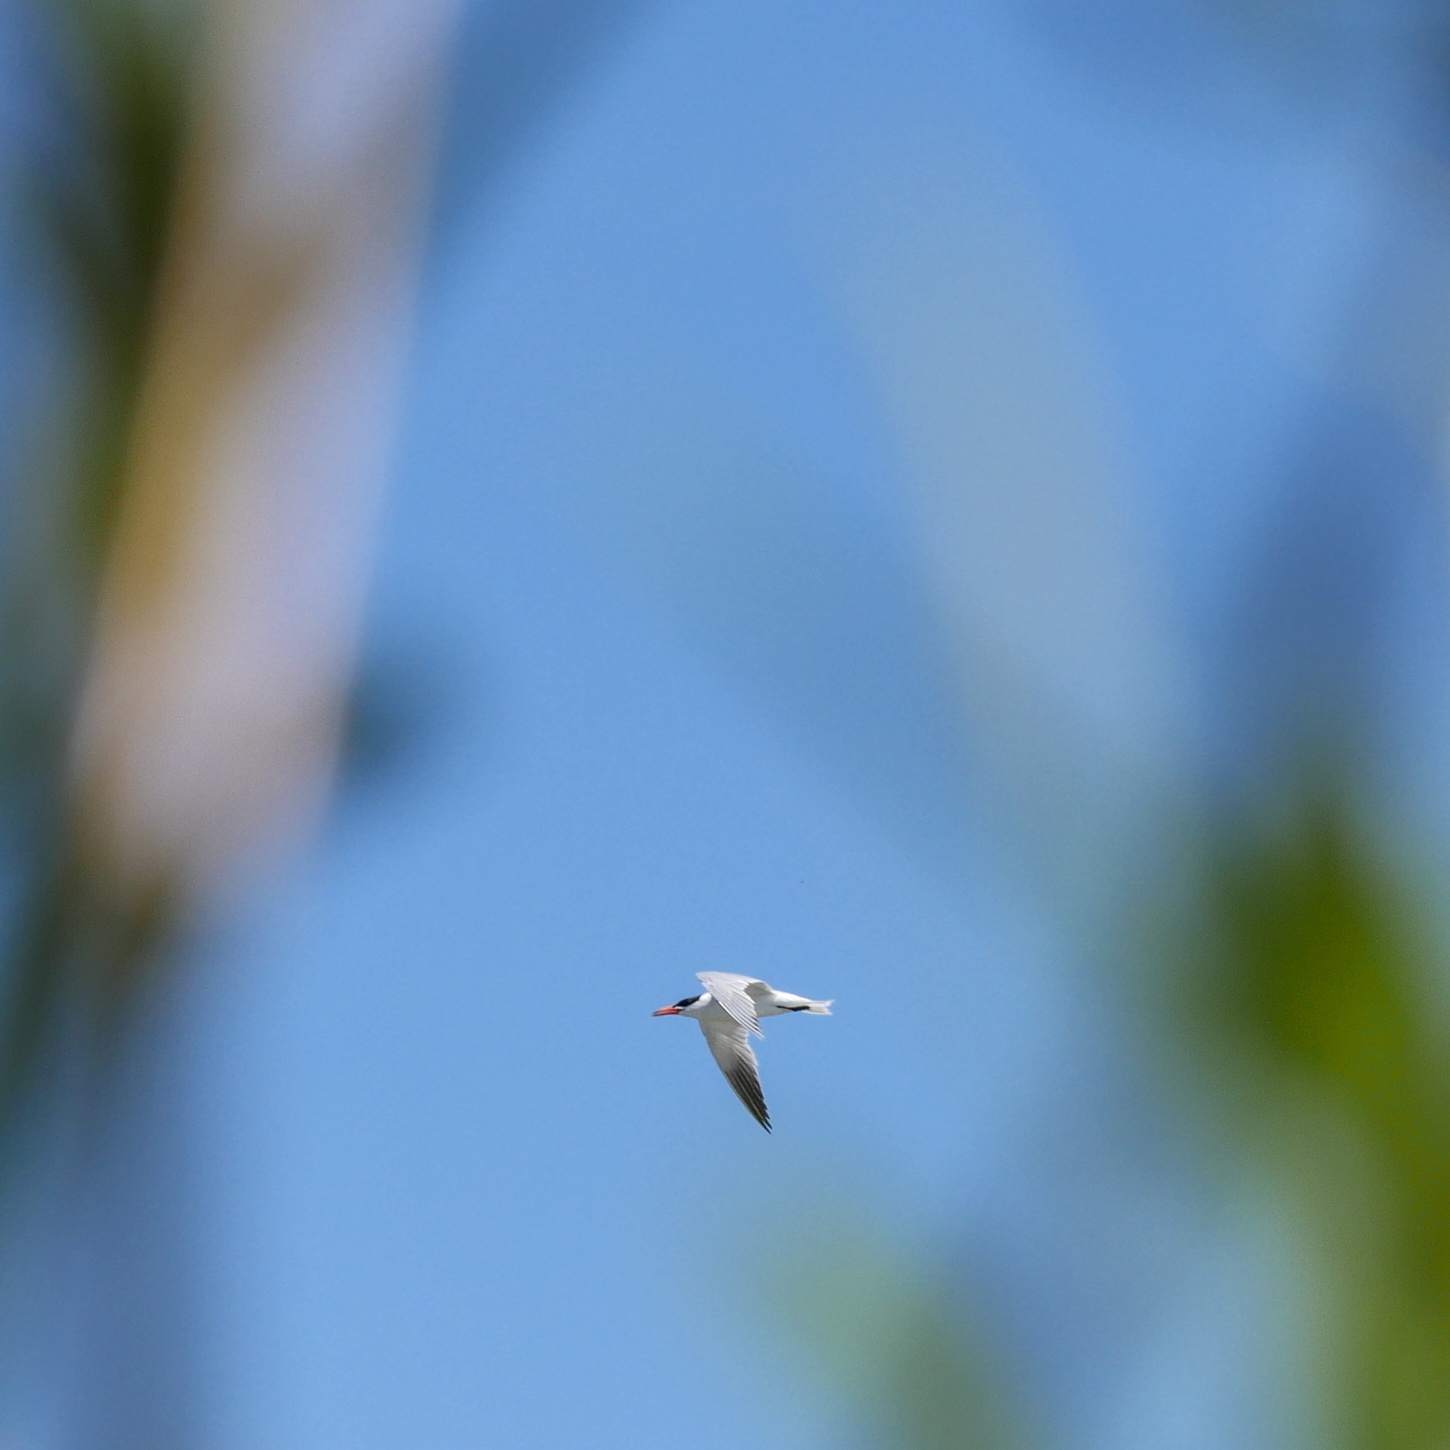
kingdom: Animalia
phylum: Chordata
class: Aves
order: Charadriiformes
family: Laridae
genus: Hydroprogne
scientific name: Hydroprogne caspia
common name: Caspian tern
